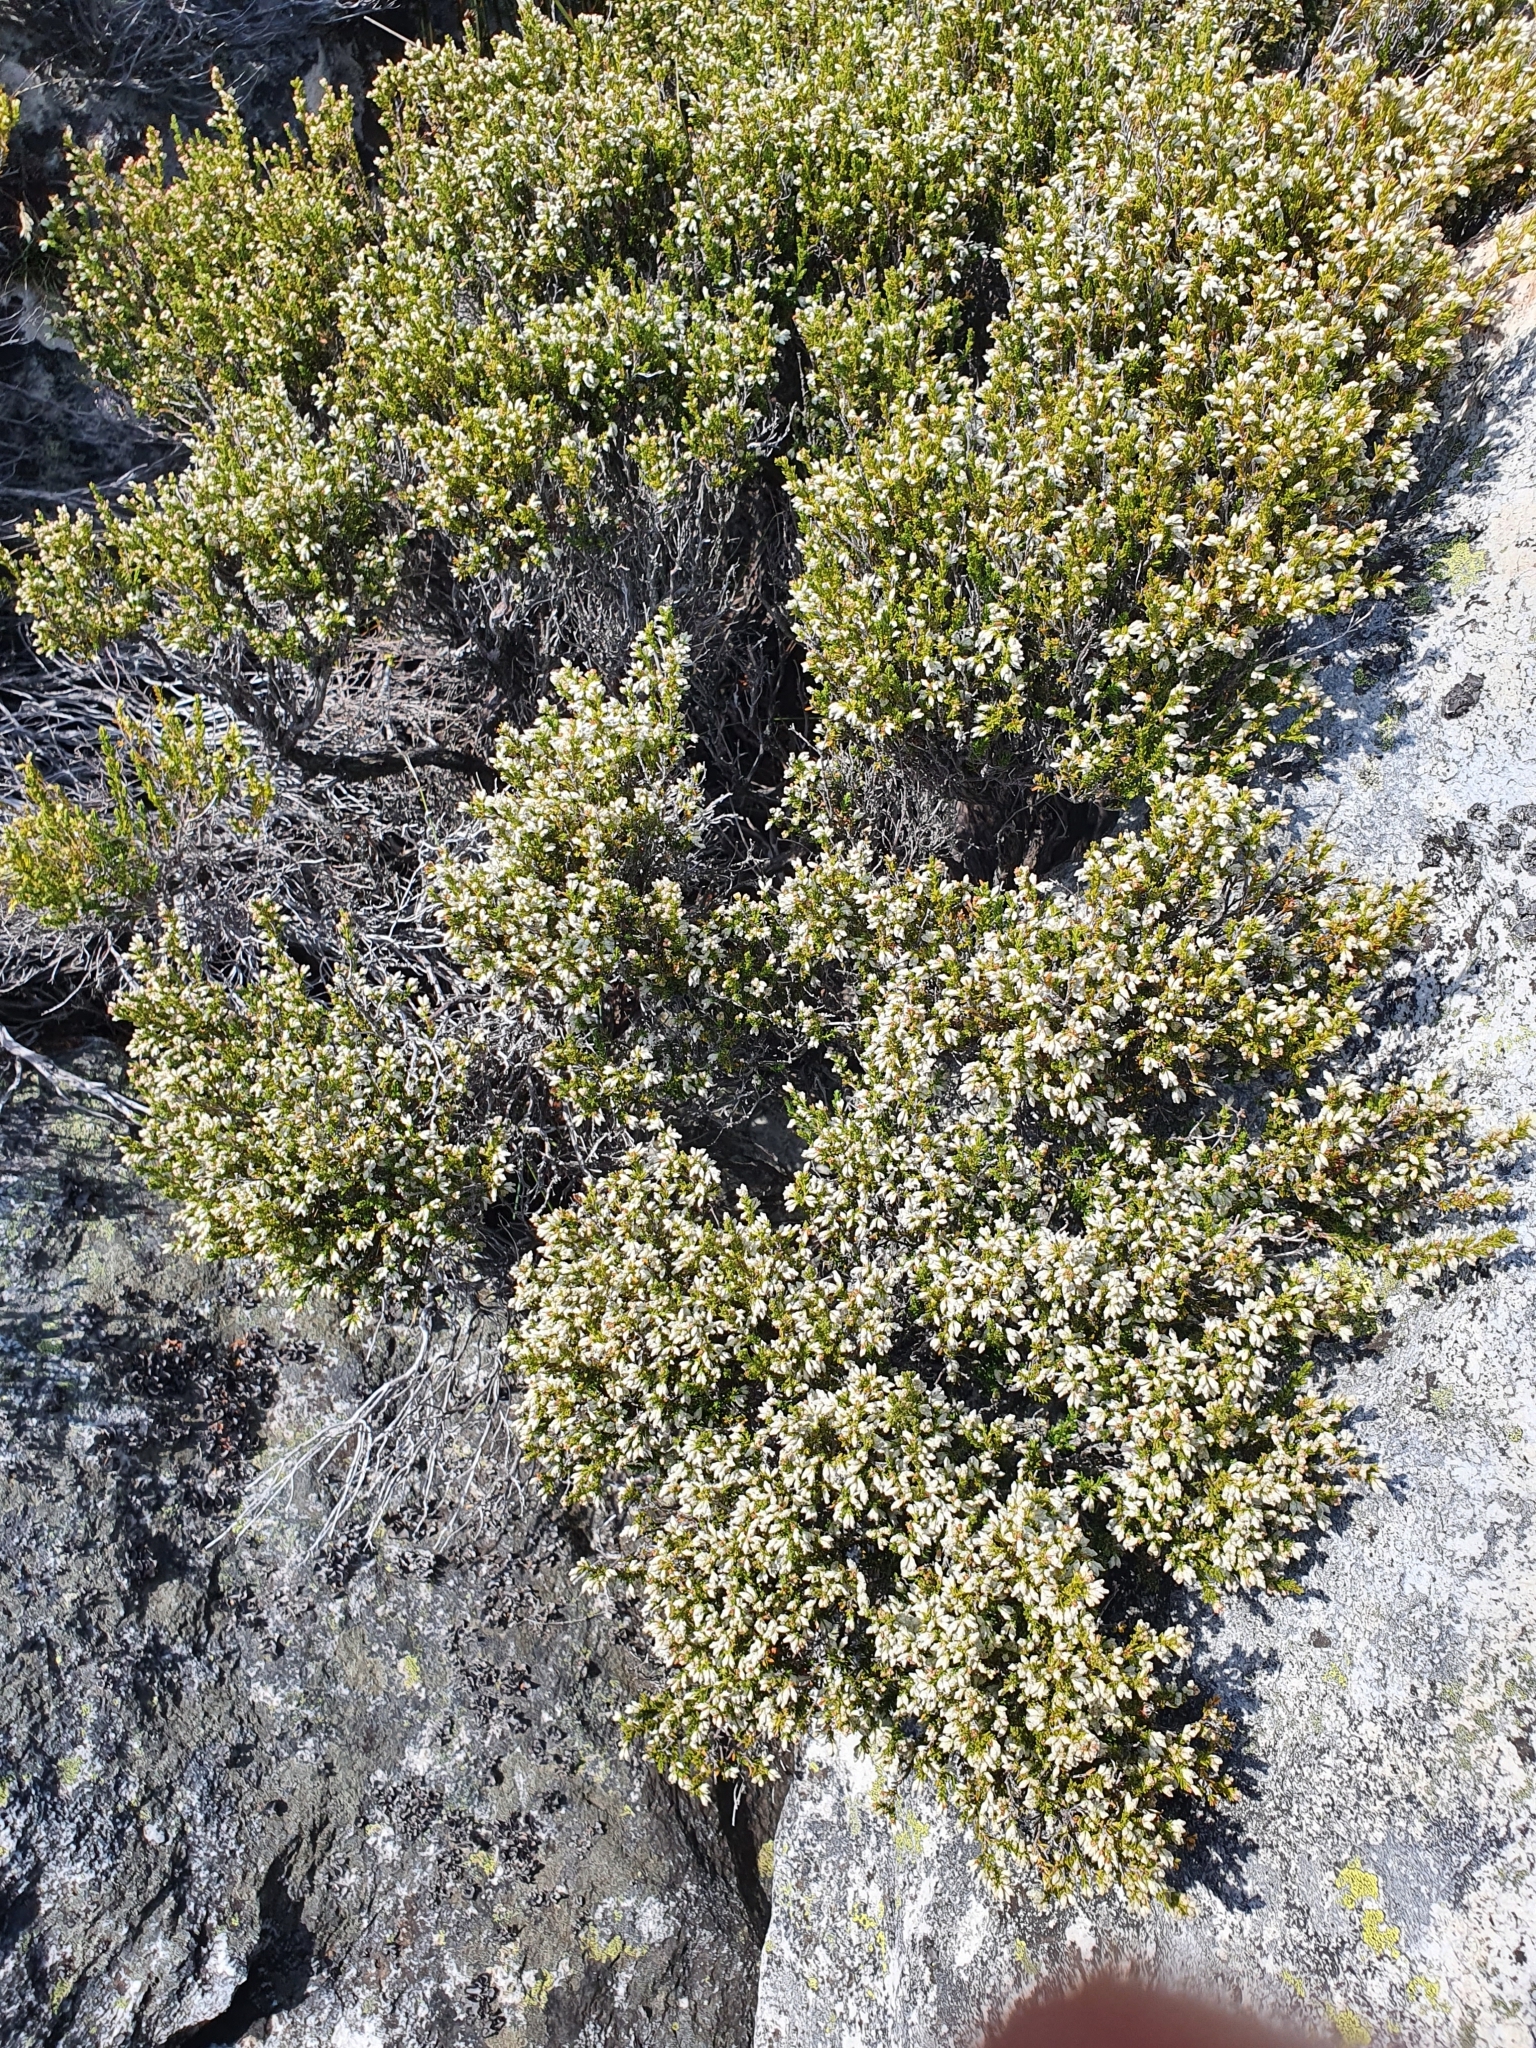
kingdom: Plantae
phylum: Tracheophyta
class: Magnoliopsida
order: Ericales
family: Ericaceae
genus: Erica
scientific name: Erica calycina
